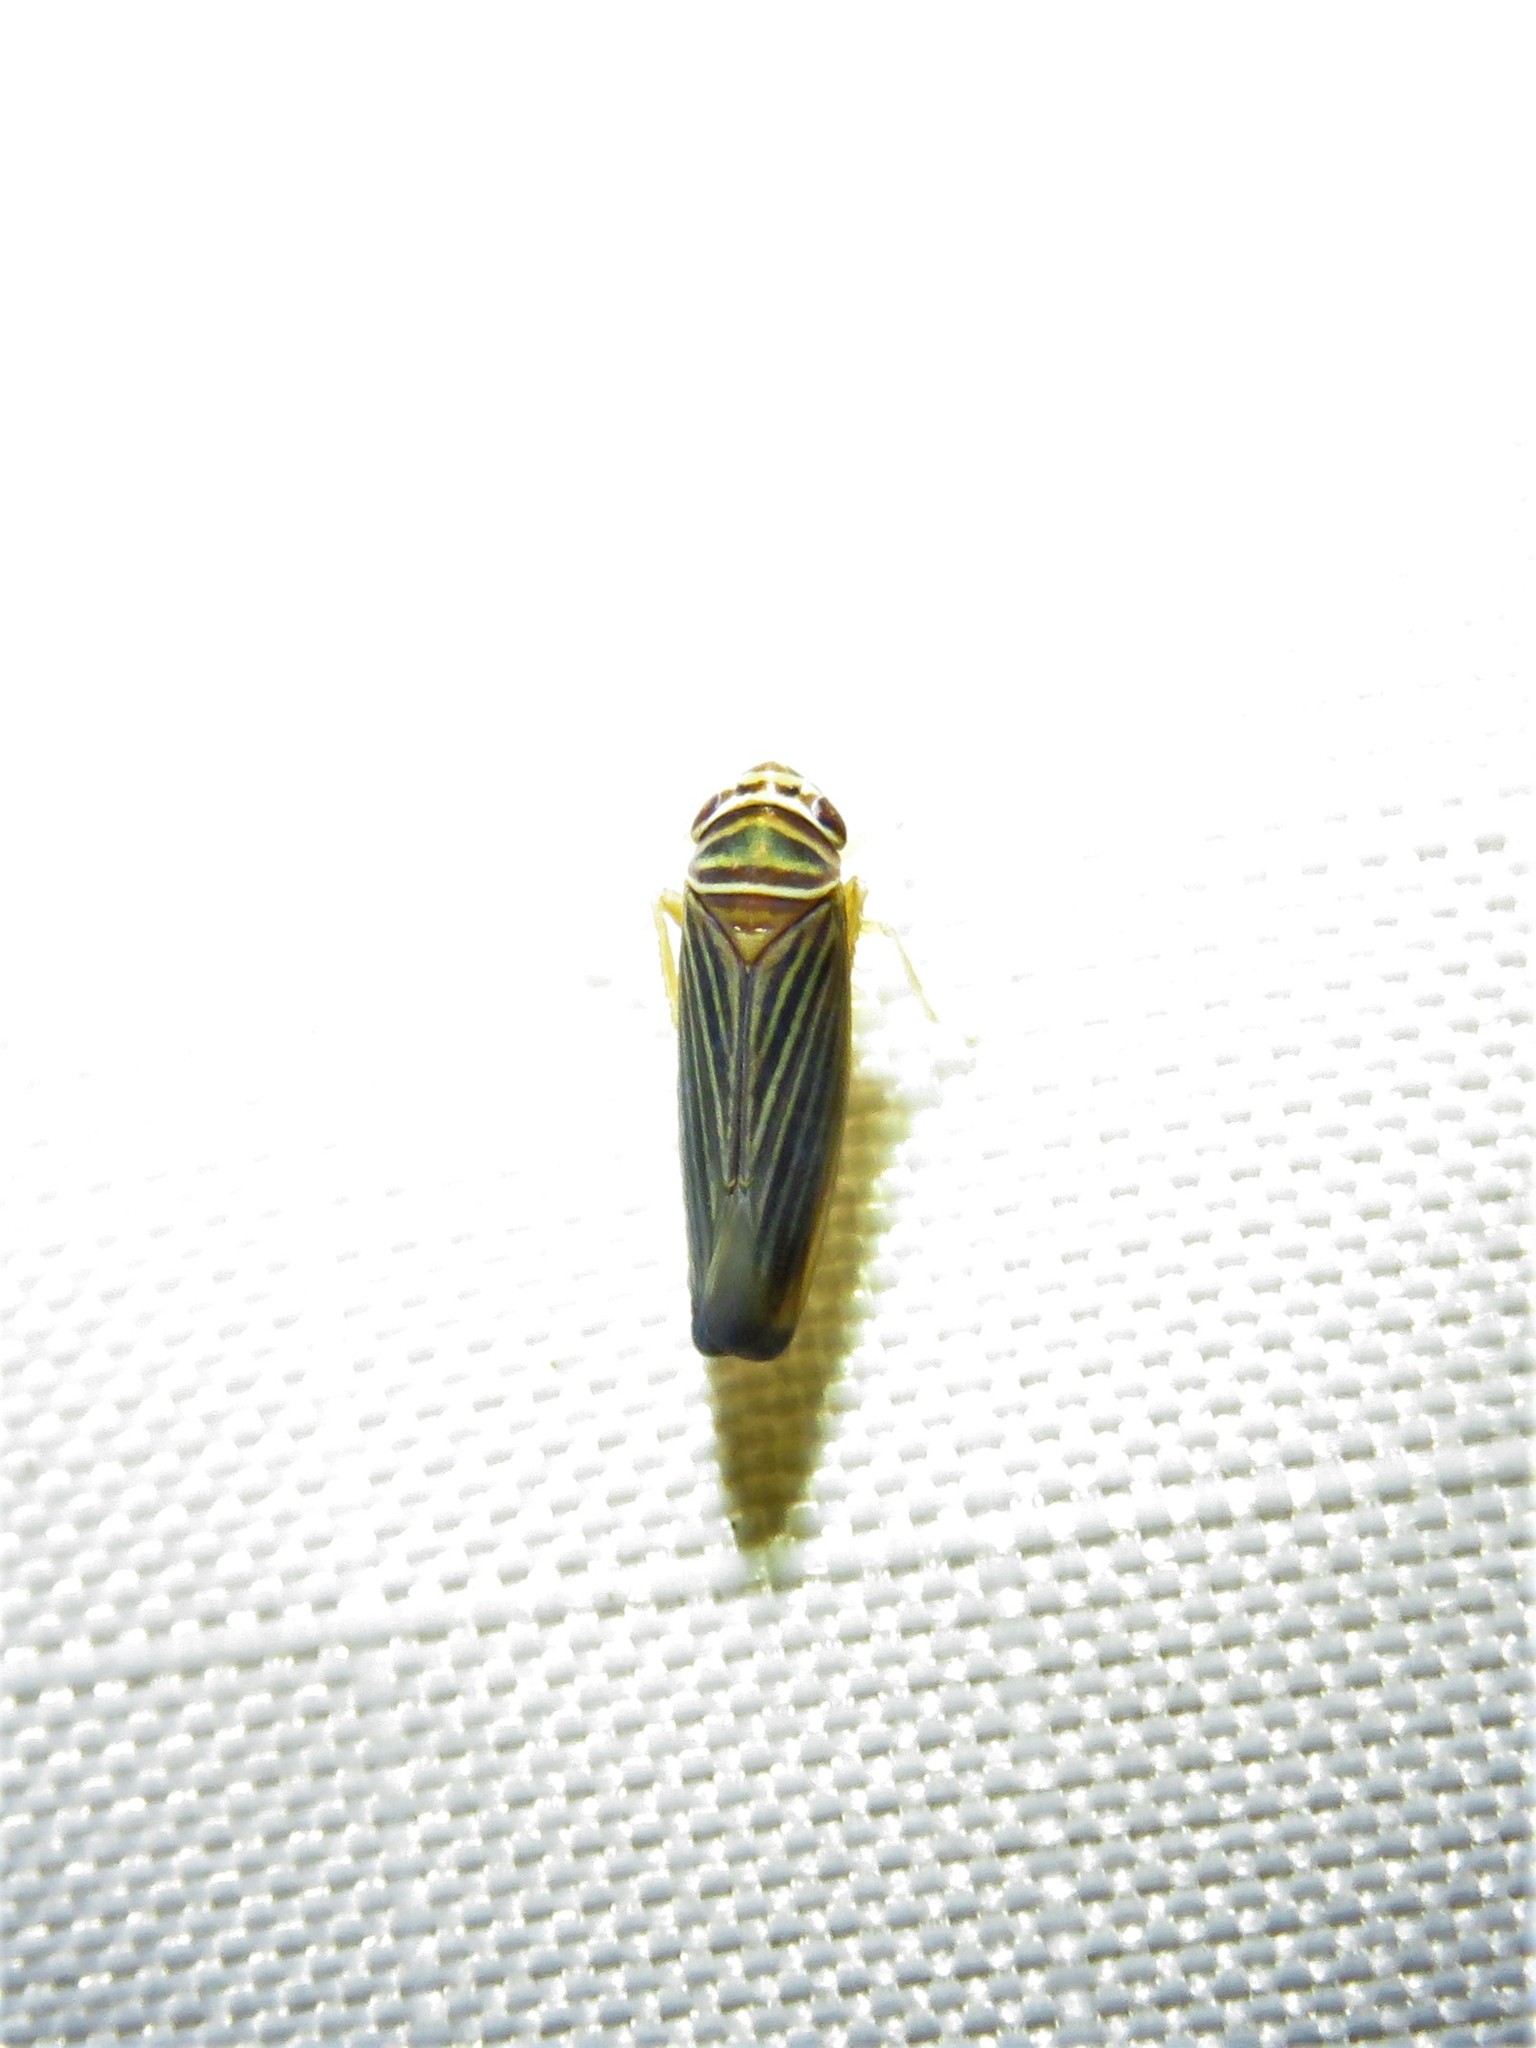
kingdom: Animalia
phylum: Arthropoda
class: Insecta
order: Hemiptera
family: Cicadellidae
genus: Tylozygus
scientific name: Tylozygus bifidus
